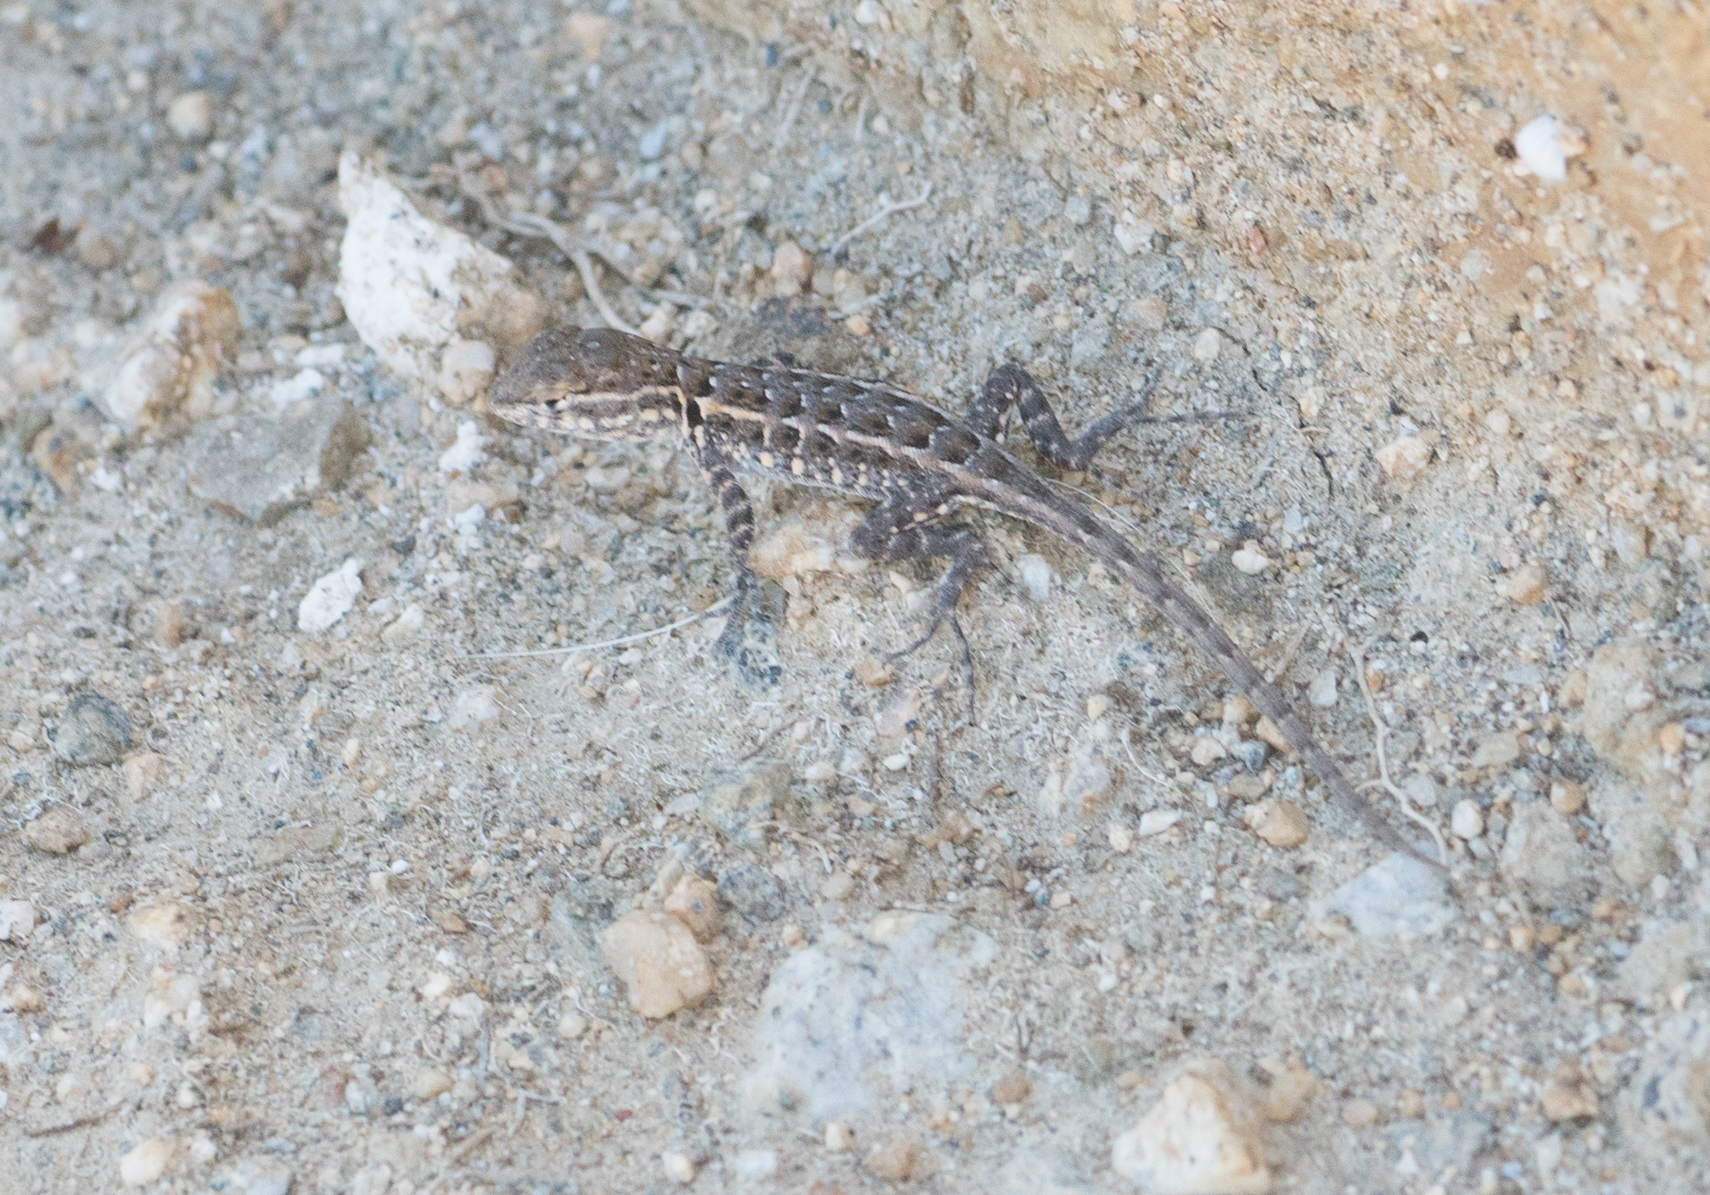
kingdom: Animalia
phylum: Chordata
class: Squamata
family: Phrynosomatidae
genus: Uta
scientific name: Uta stansburiana
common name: Side-blotched lizard
